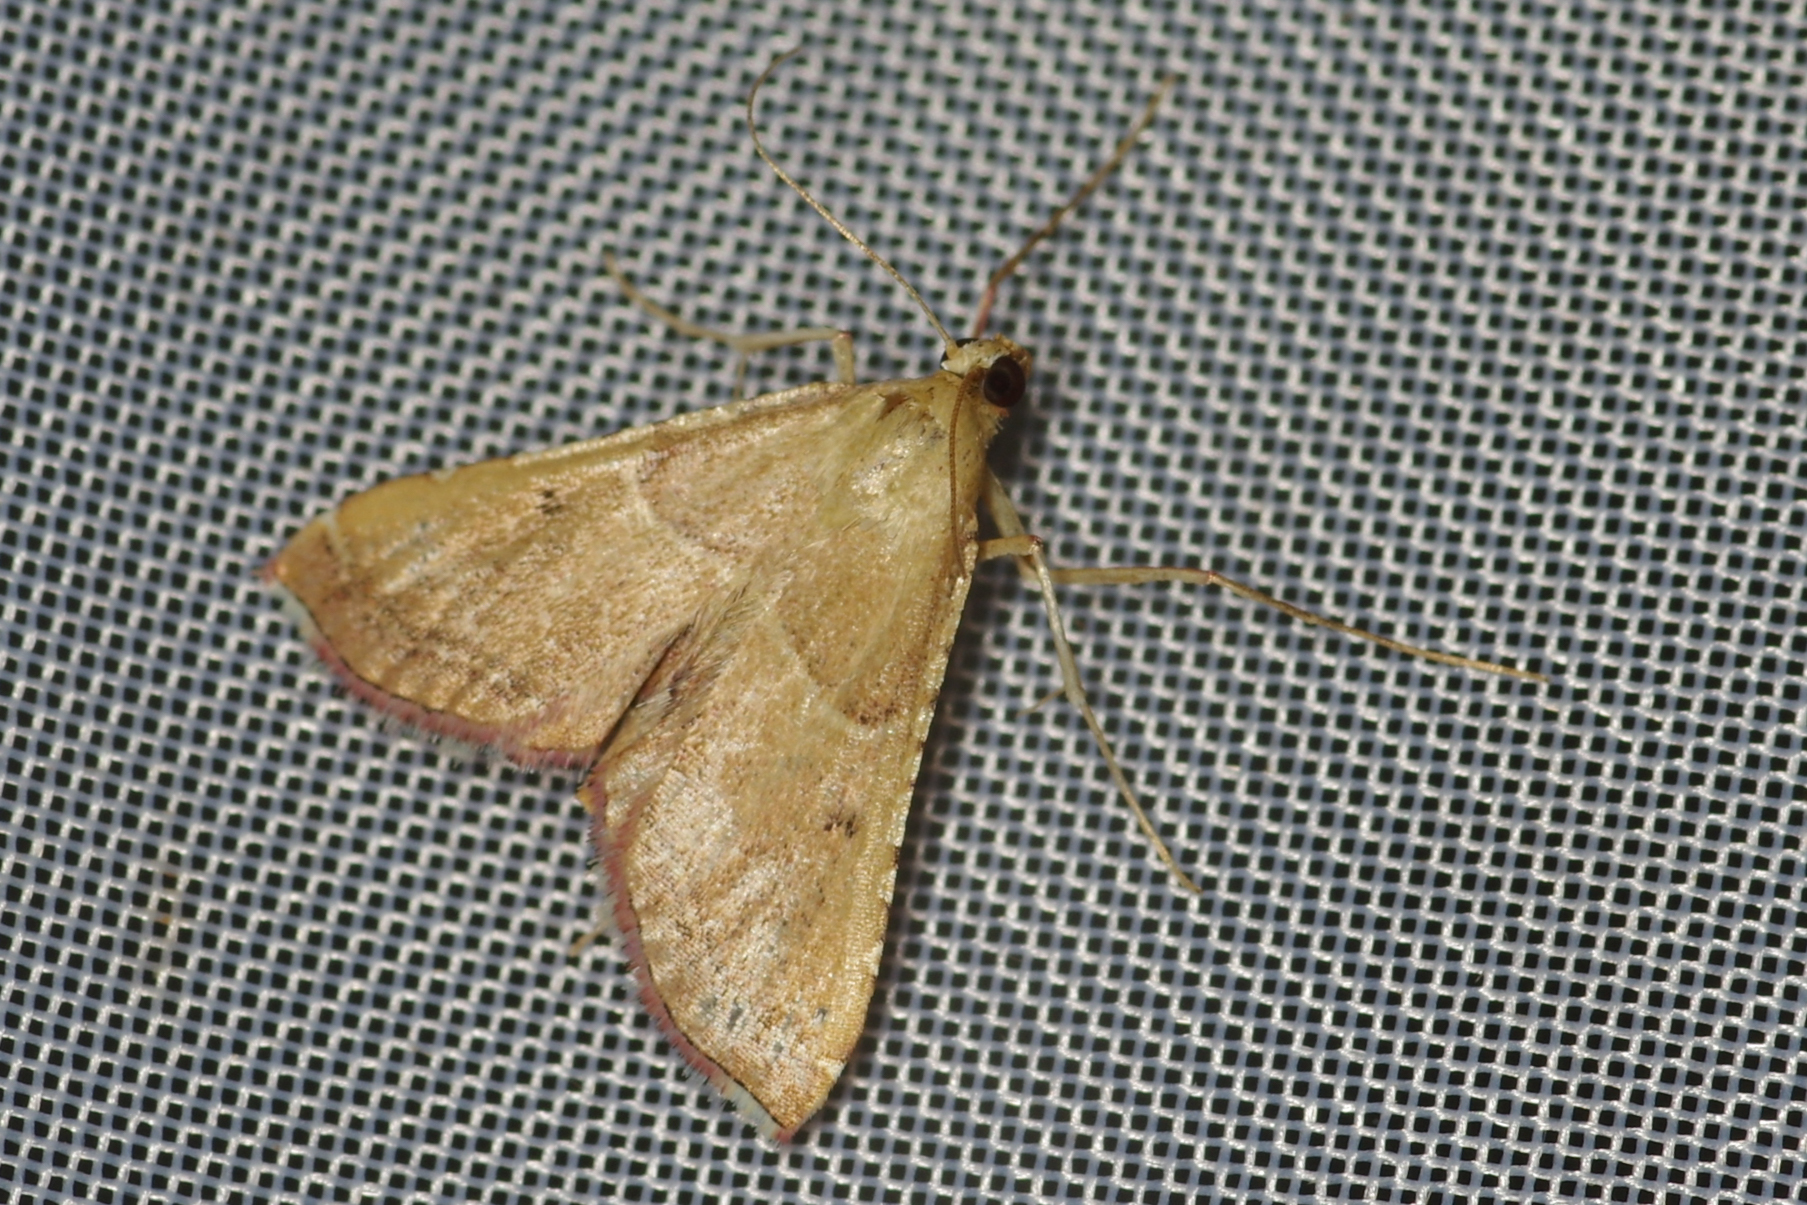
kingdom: Animalia
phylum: Arthropoda
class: Insecta
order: Lepidoptera
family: Pyralidae
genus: Endotricha
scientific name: Endotricha flammealis
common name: Rosy tabby
